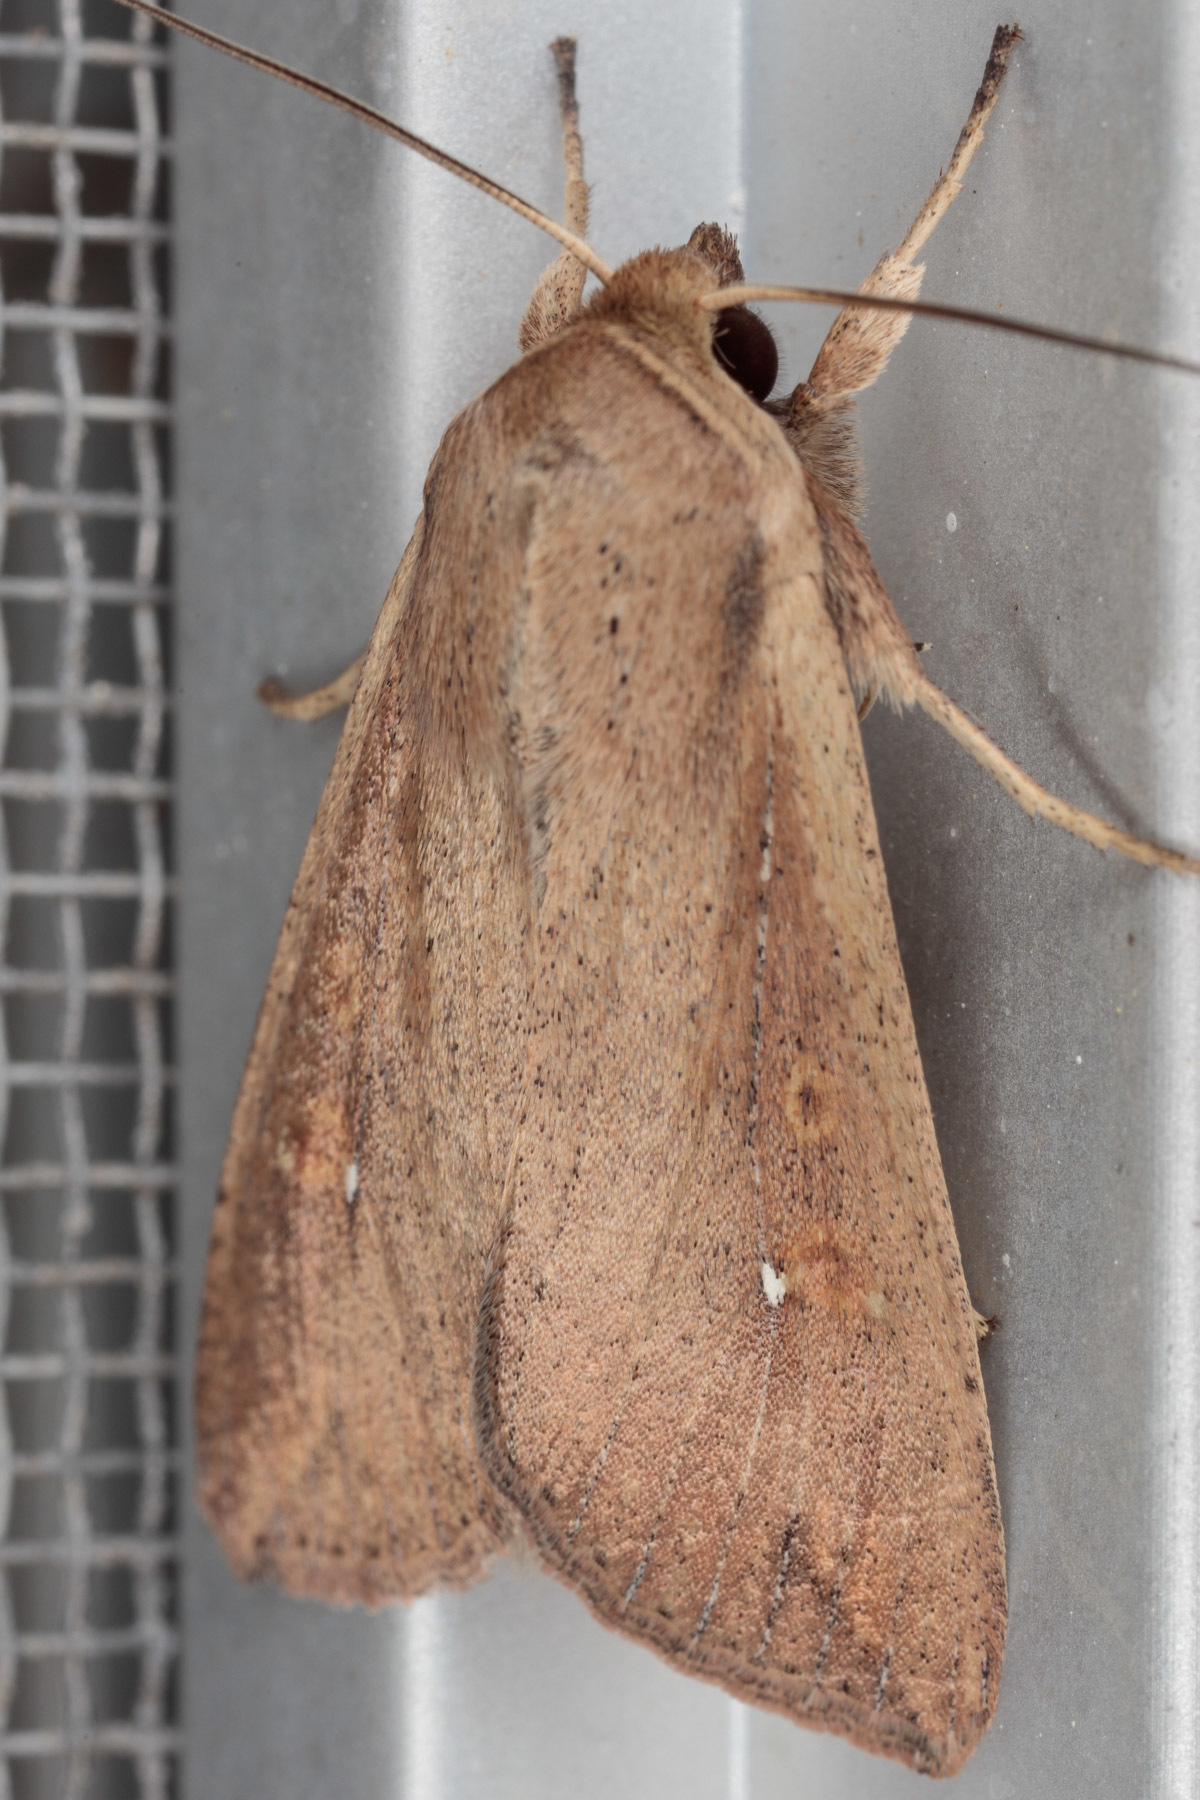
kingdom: Animalia
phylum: Arthropoda
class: Insecta
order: Lepidoptera
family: Noctuidae
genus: Mythimna
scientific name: Mythimna unipuncta
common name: White-speck
